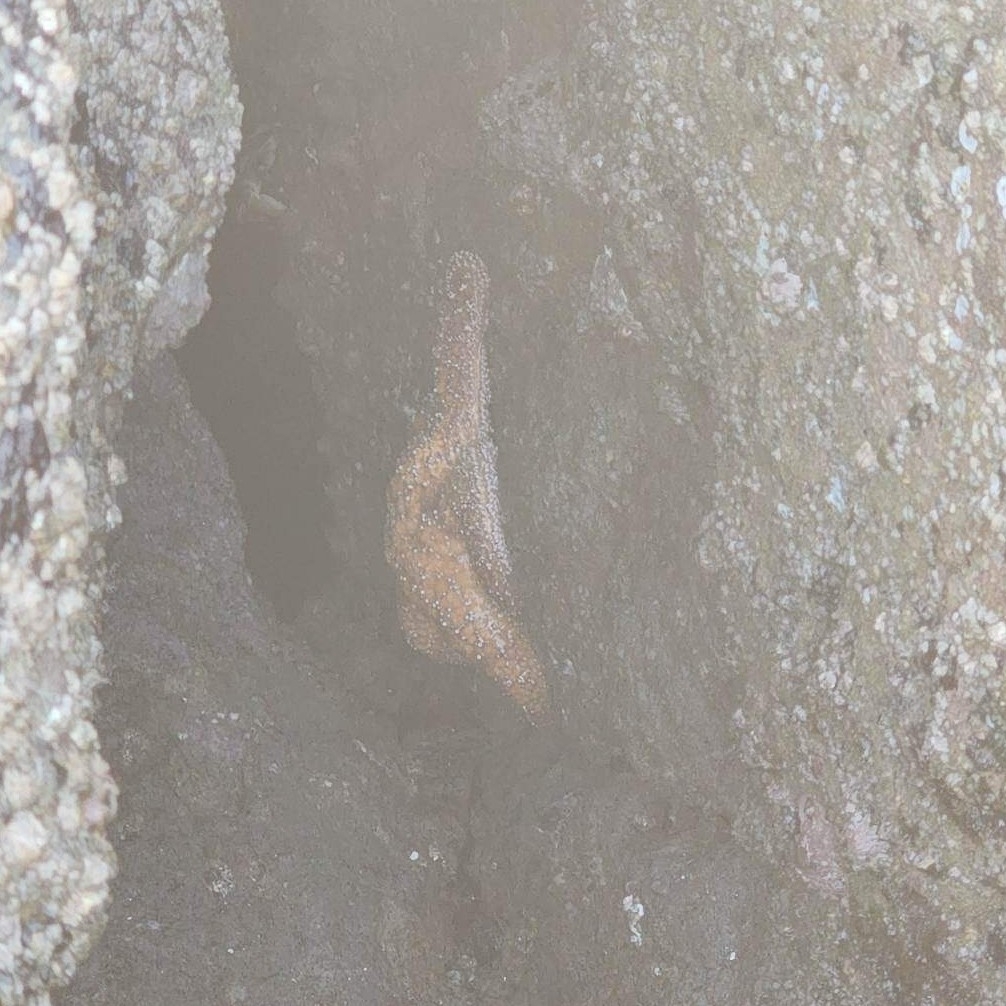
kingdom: Animalia
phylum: Echinodermata
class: Asteroidea
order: Forcipulatida
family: Asteriidae
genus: Pisaster
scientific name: Pisaster ochraceus
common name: Ochre stars
